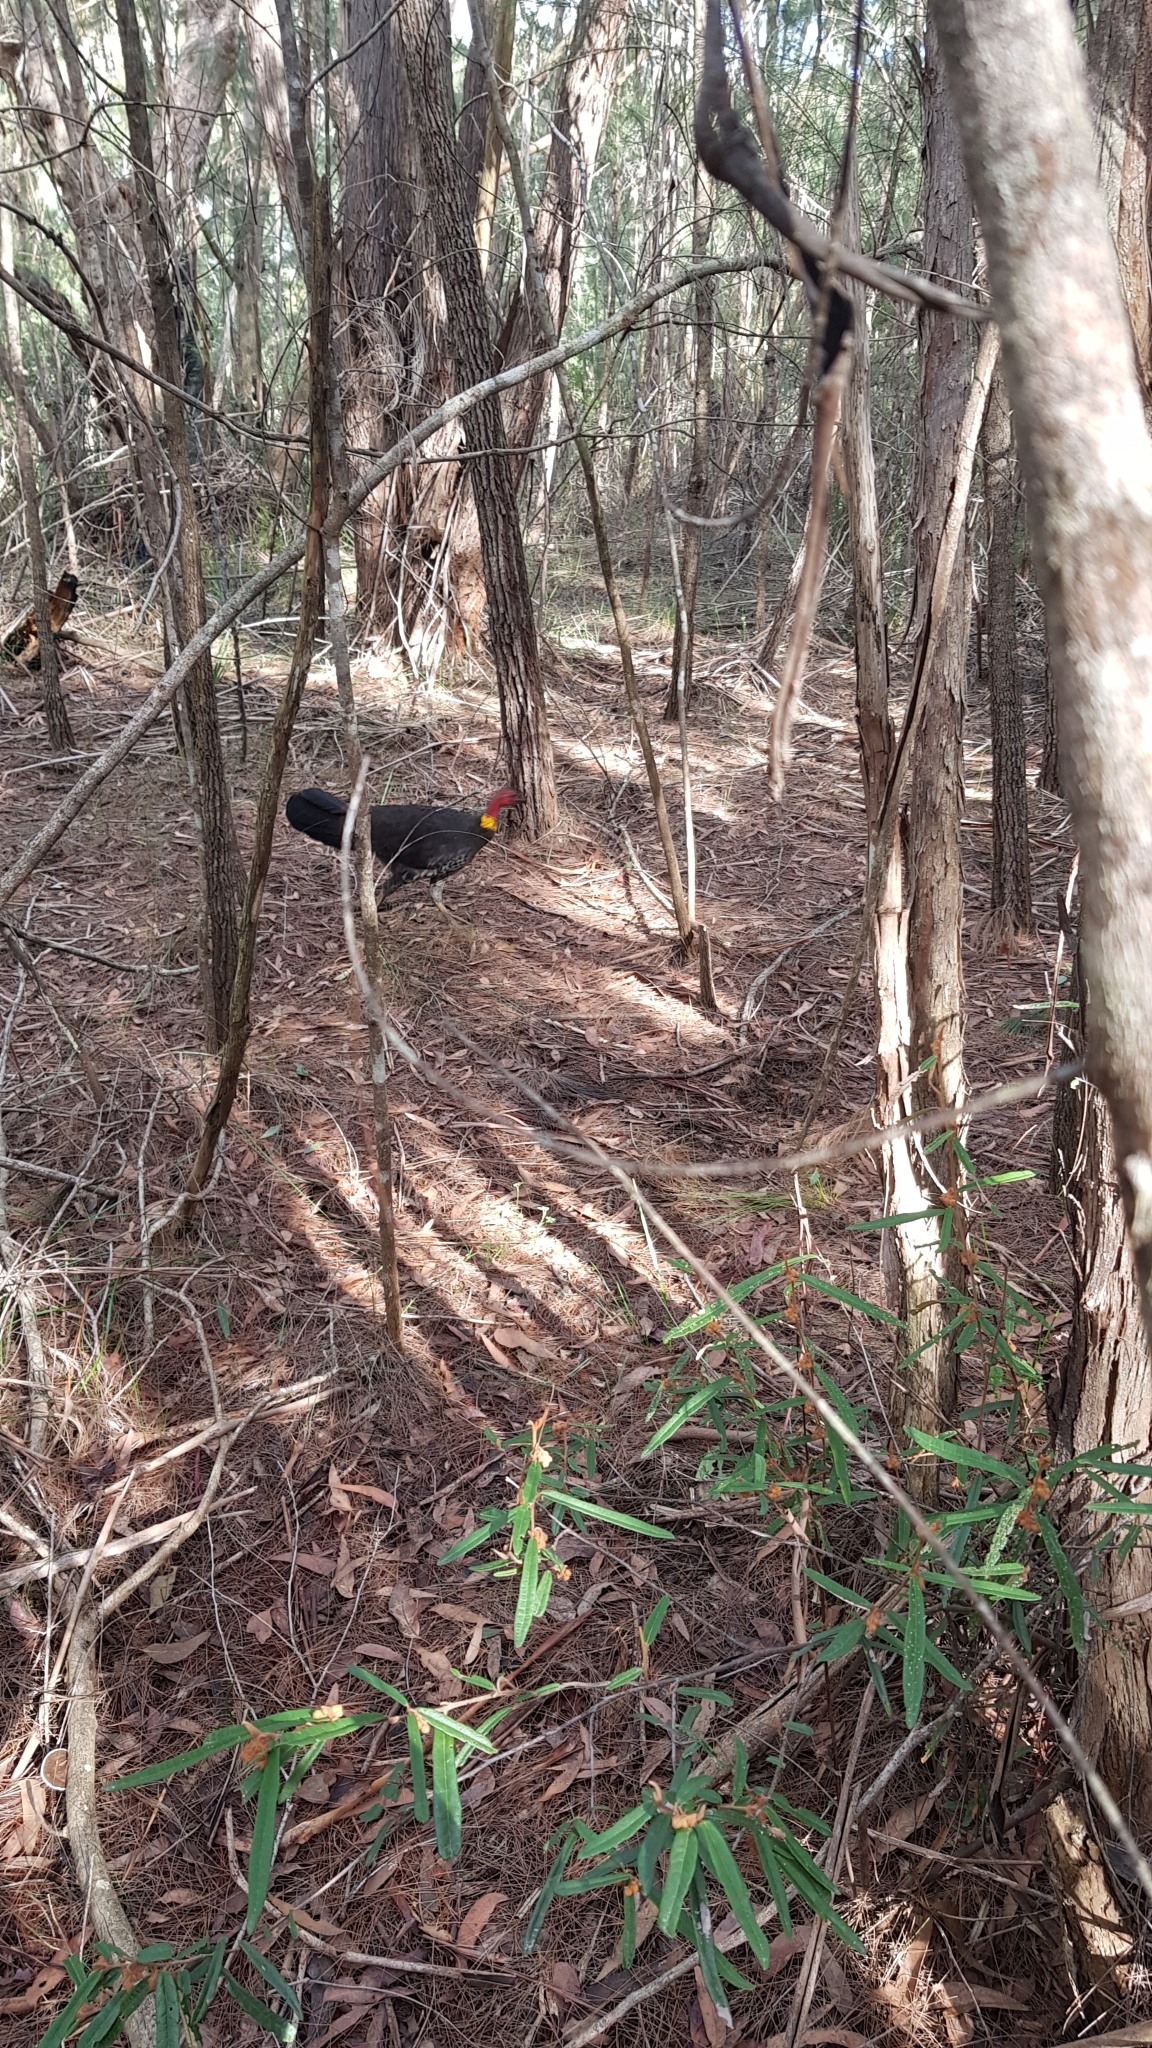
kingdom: Animalia
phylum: Chordata
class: Aves
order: Galliformes
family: Megapodiidae
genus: Alectura
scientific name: Alectura lathami
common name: Australian brushturkey
